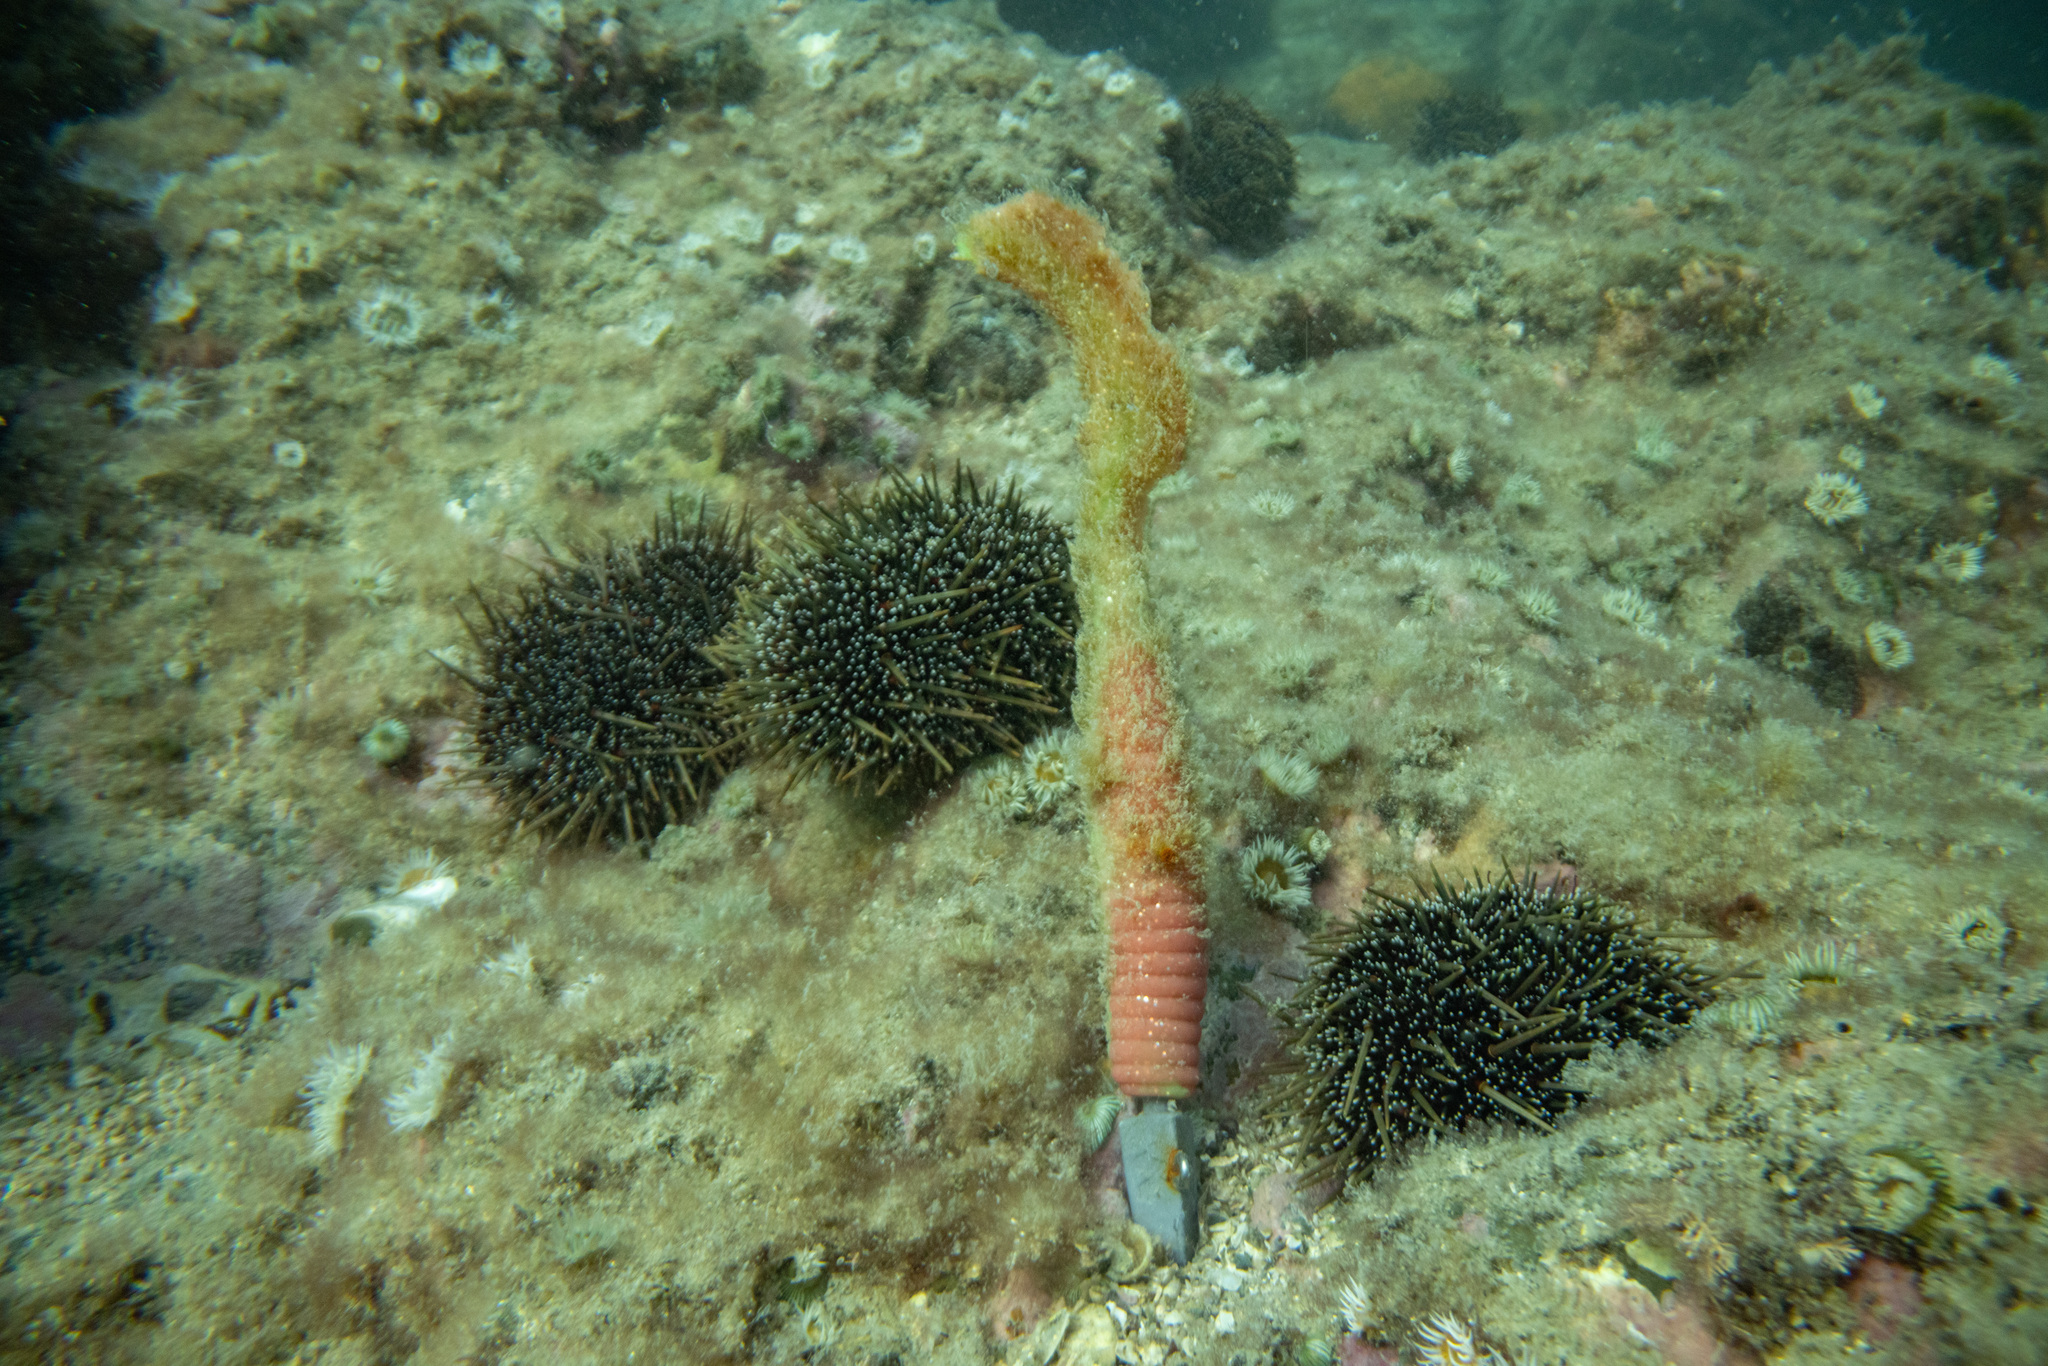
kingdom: Animalia
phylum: Echinodermata
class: Echinoidea
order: Camarodonta
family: Echinometridae
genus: Evechinus
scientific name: Evechinus chloroticus
